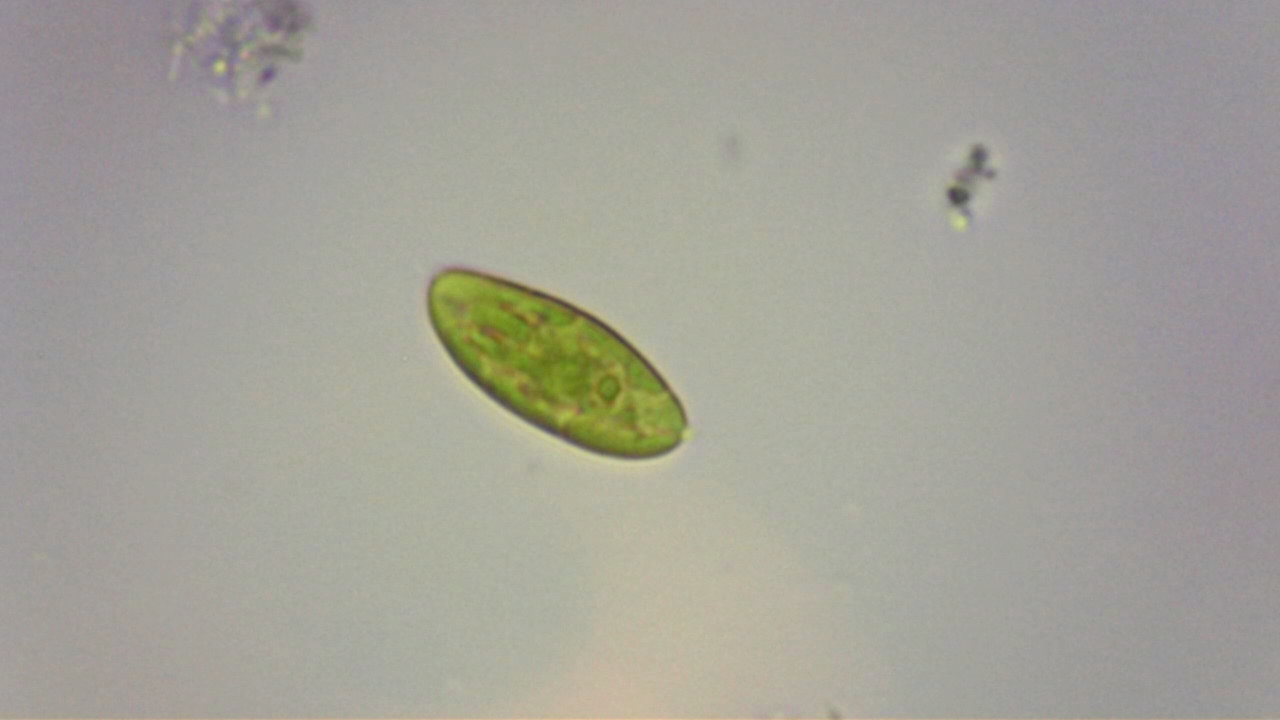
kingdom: Chromista
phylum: Cryptophyta
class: Cryptophyceae
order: Cryptomonadales
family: Cryptomonadaceae
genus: Cryptomonas
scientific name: Cryptomonas
